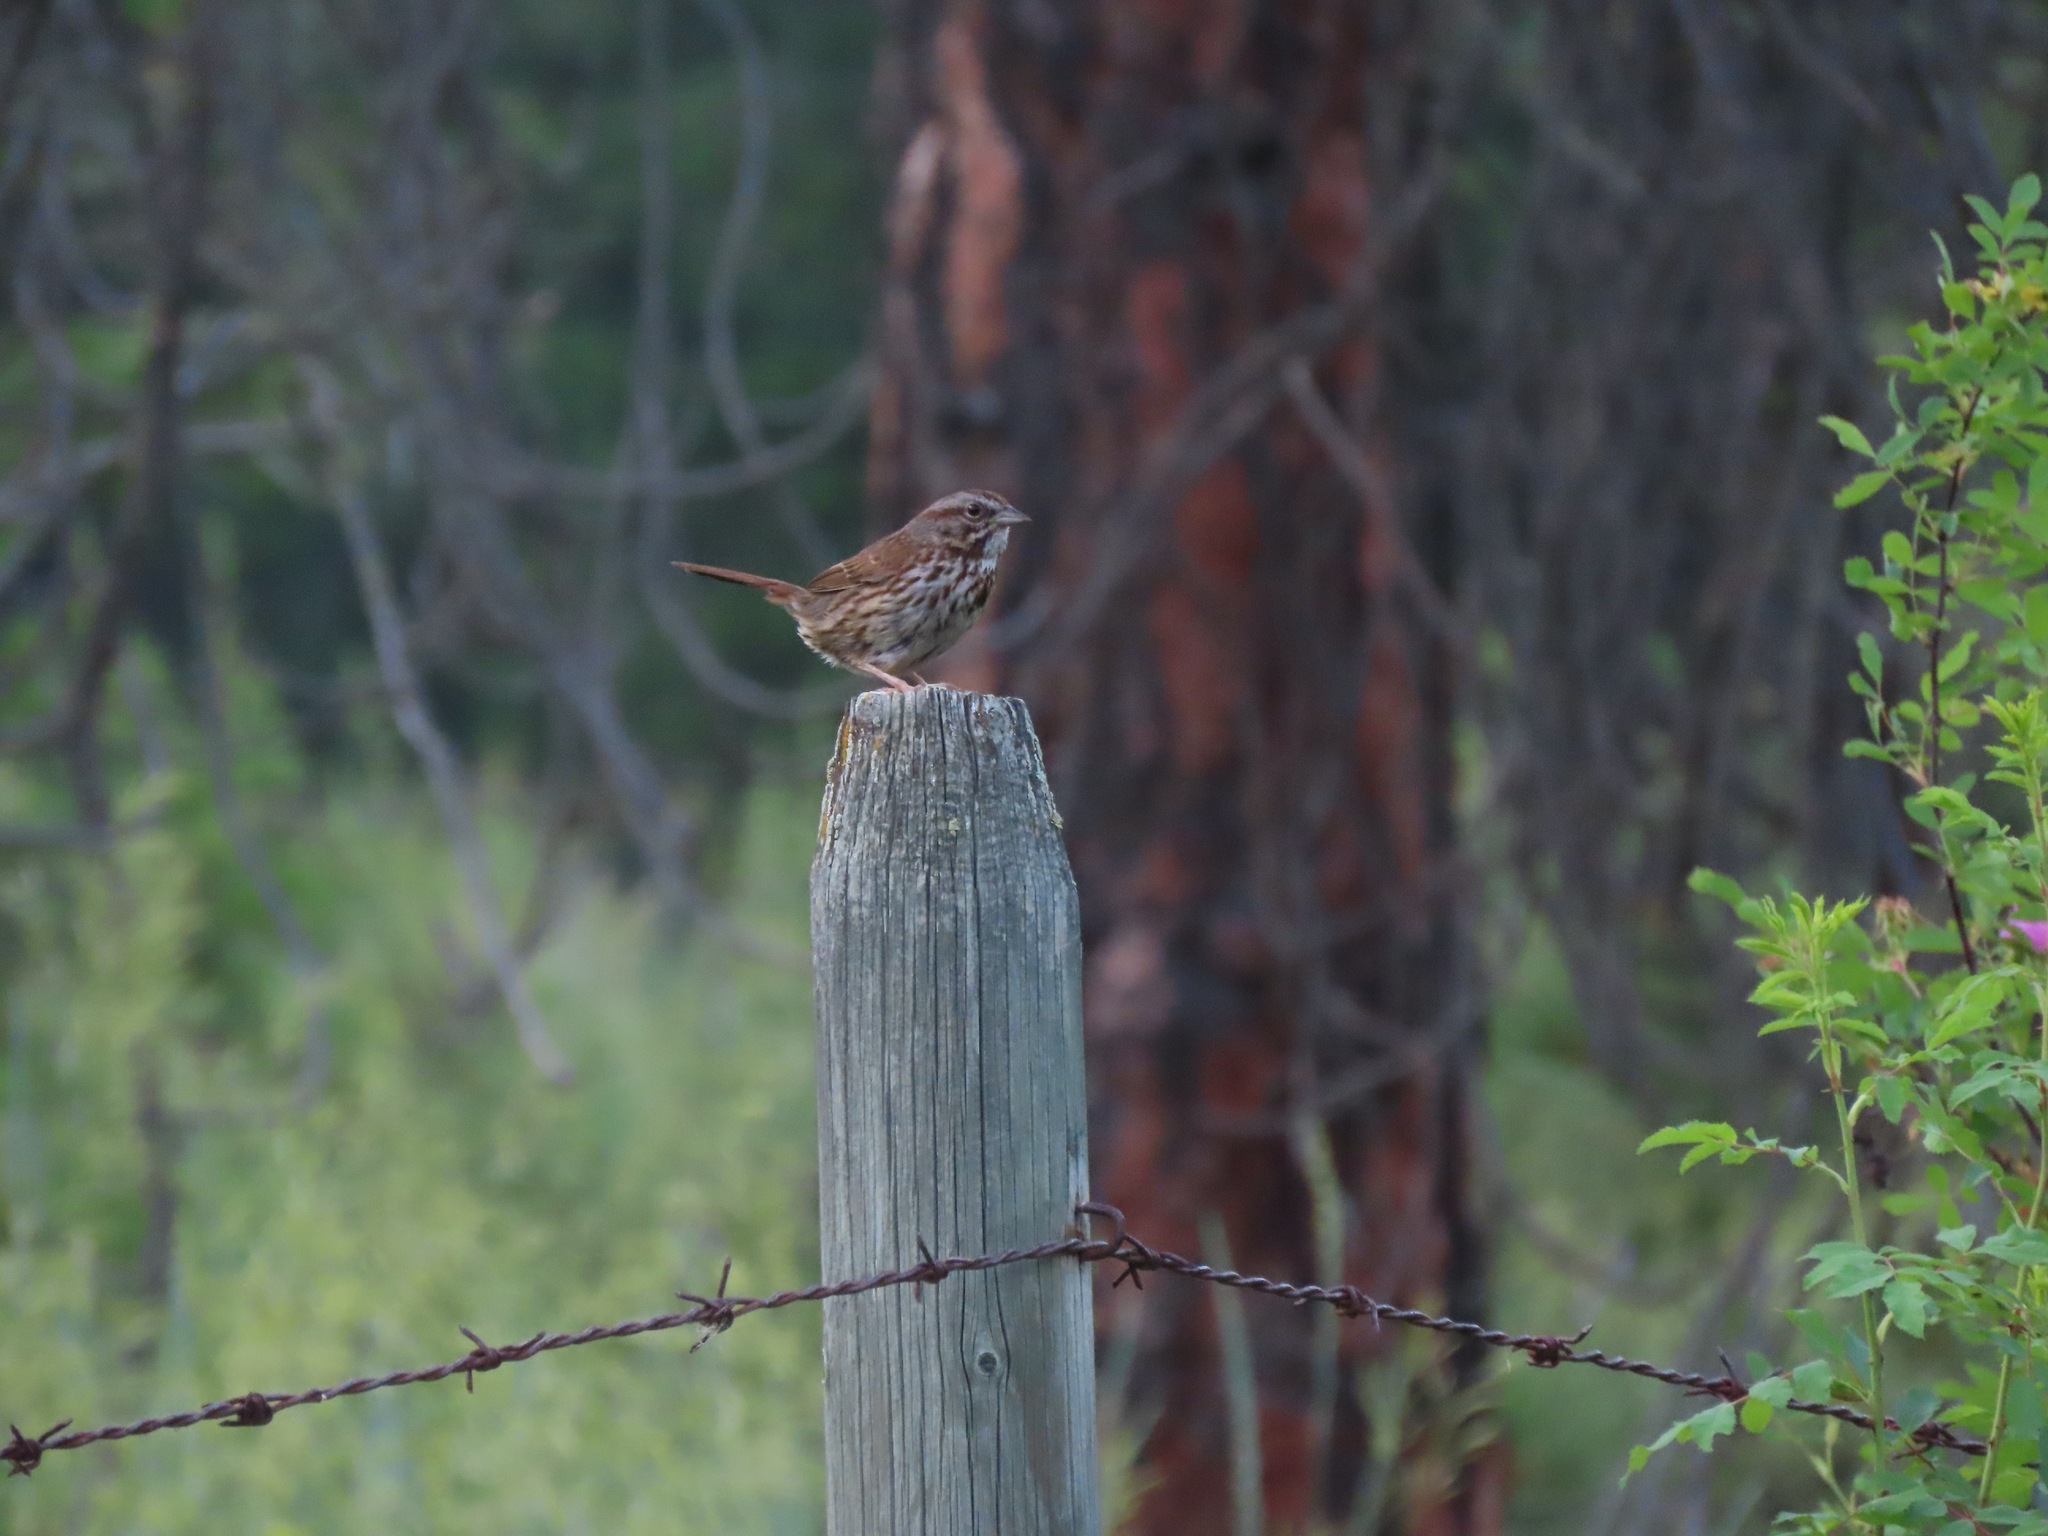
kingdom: Animalia
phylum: Chordata
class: Aves
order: Passeriformes
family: Passerellidae
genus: Melospiza
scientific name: Melospiza melodia
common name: Song sparrow
